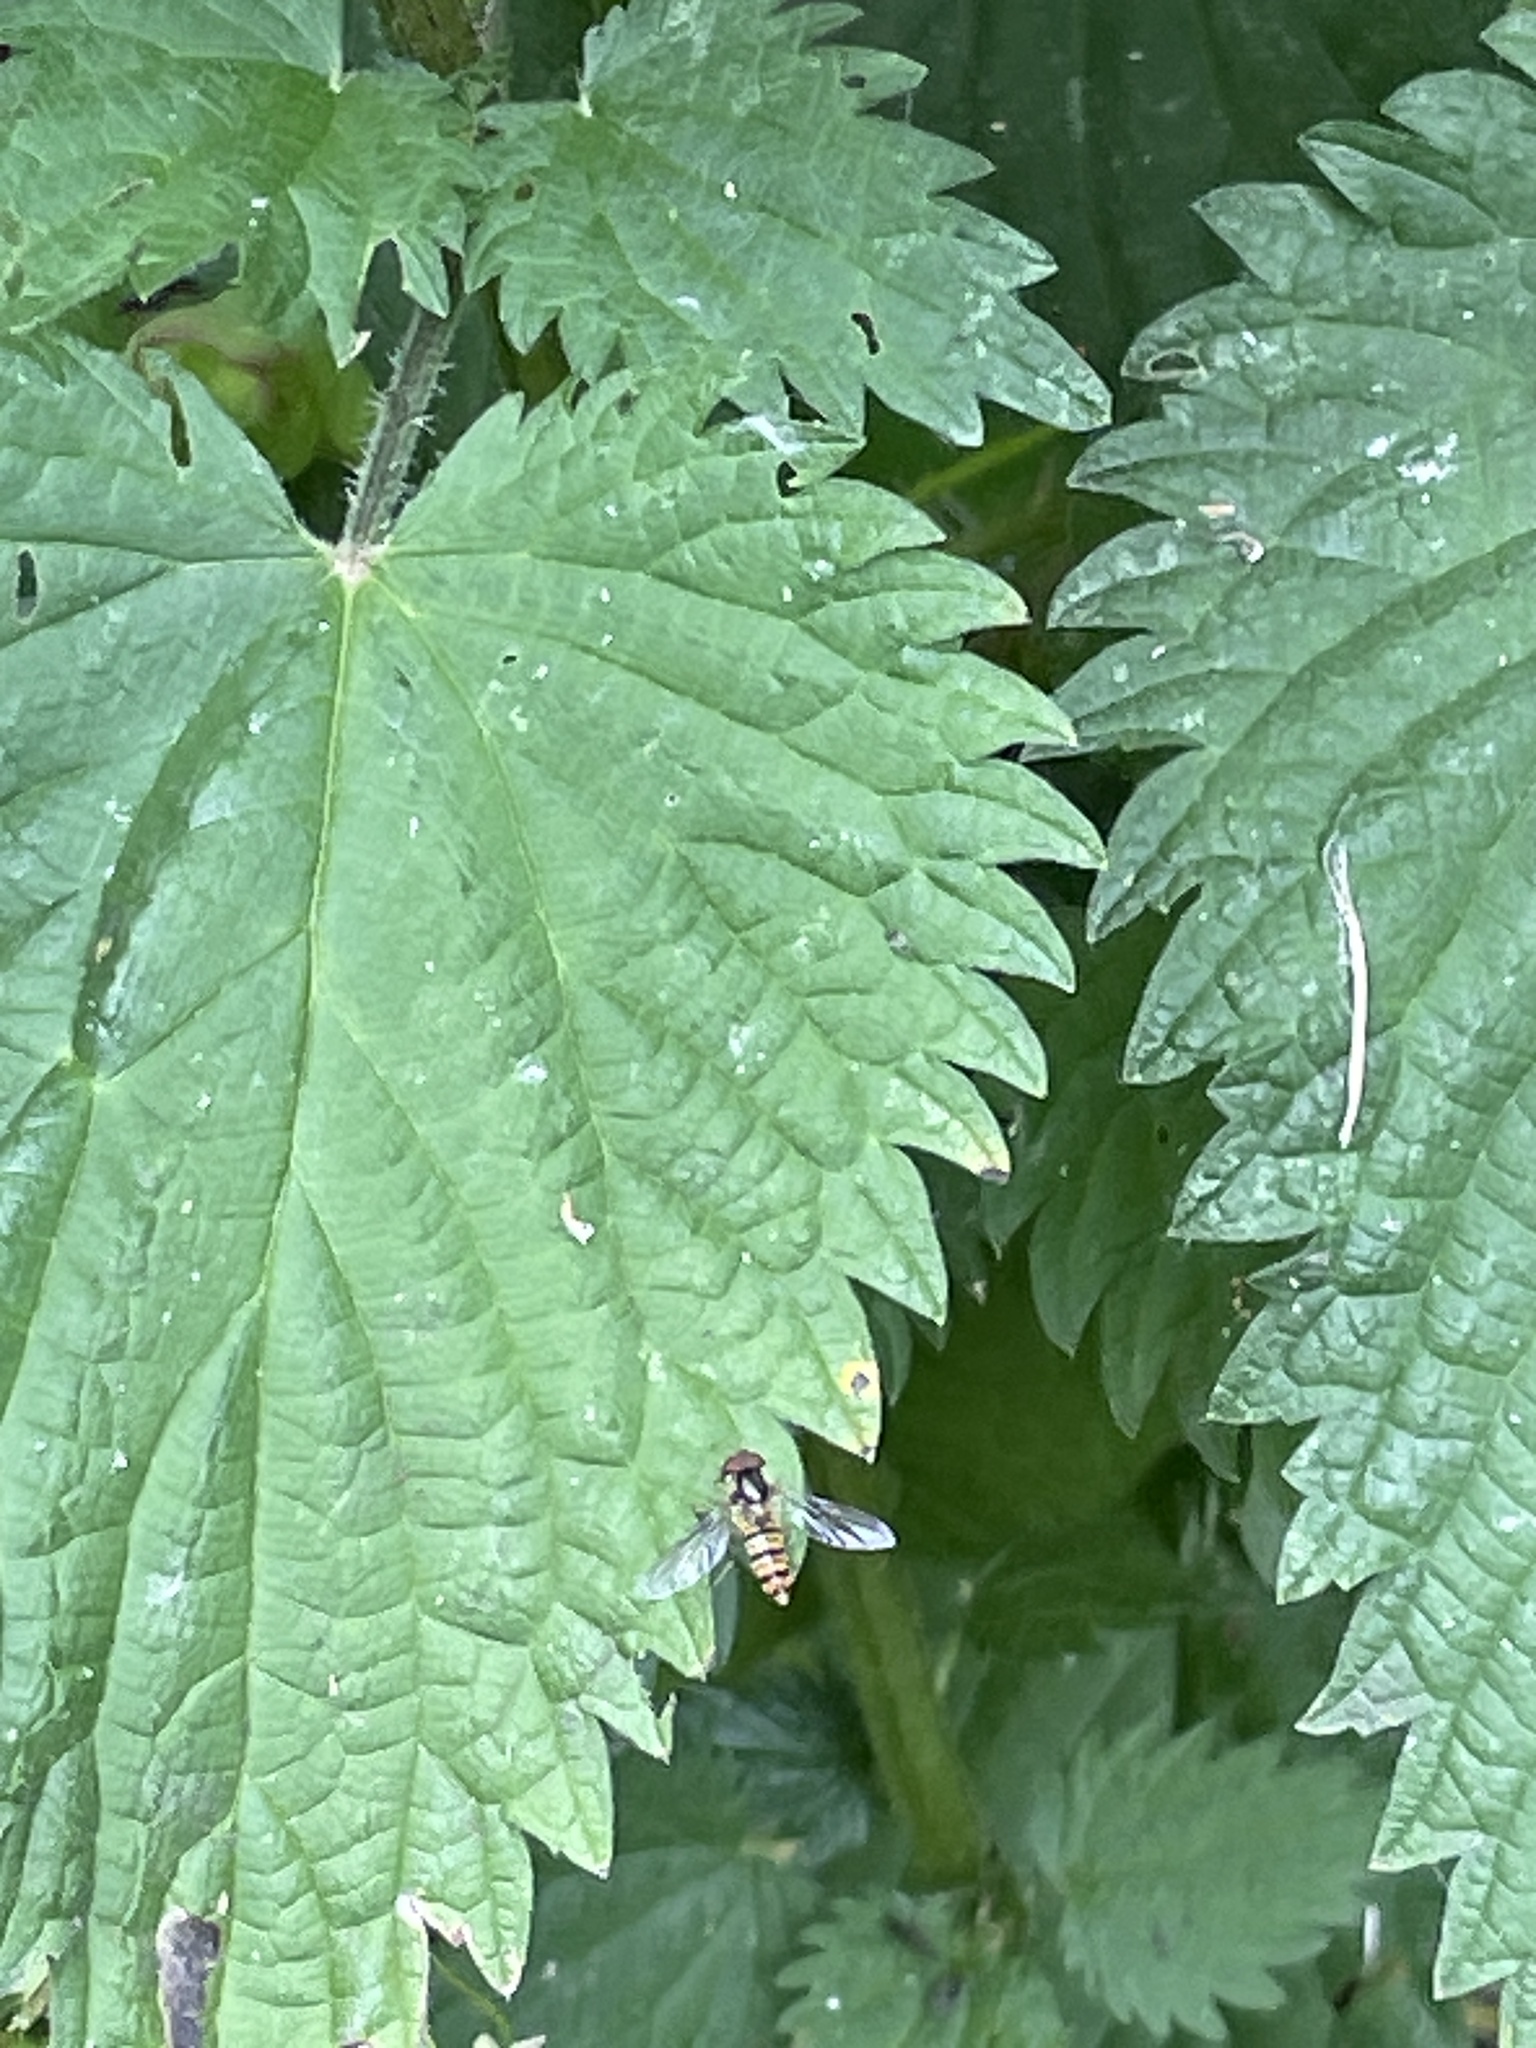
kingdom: Animalia
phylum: Arthropoda
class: Insecta
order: Diptera
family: Syrphidae
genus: Episyrphus
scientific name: Episyrphus balteatus
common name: Marmalade hoverfly
